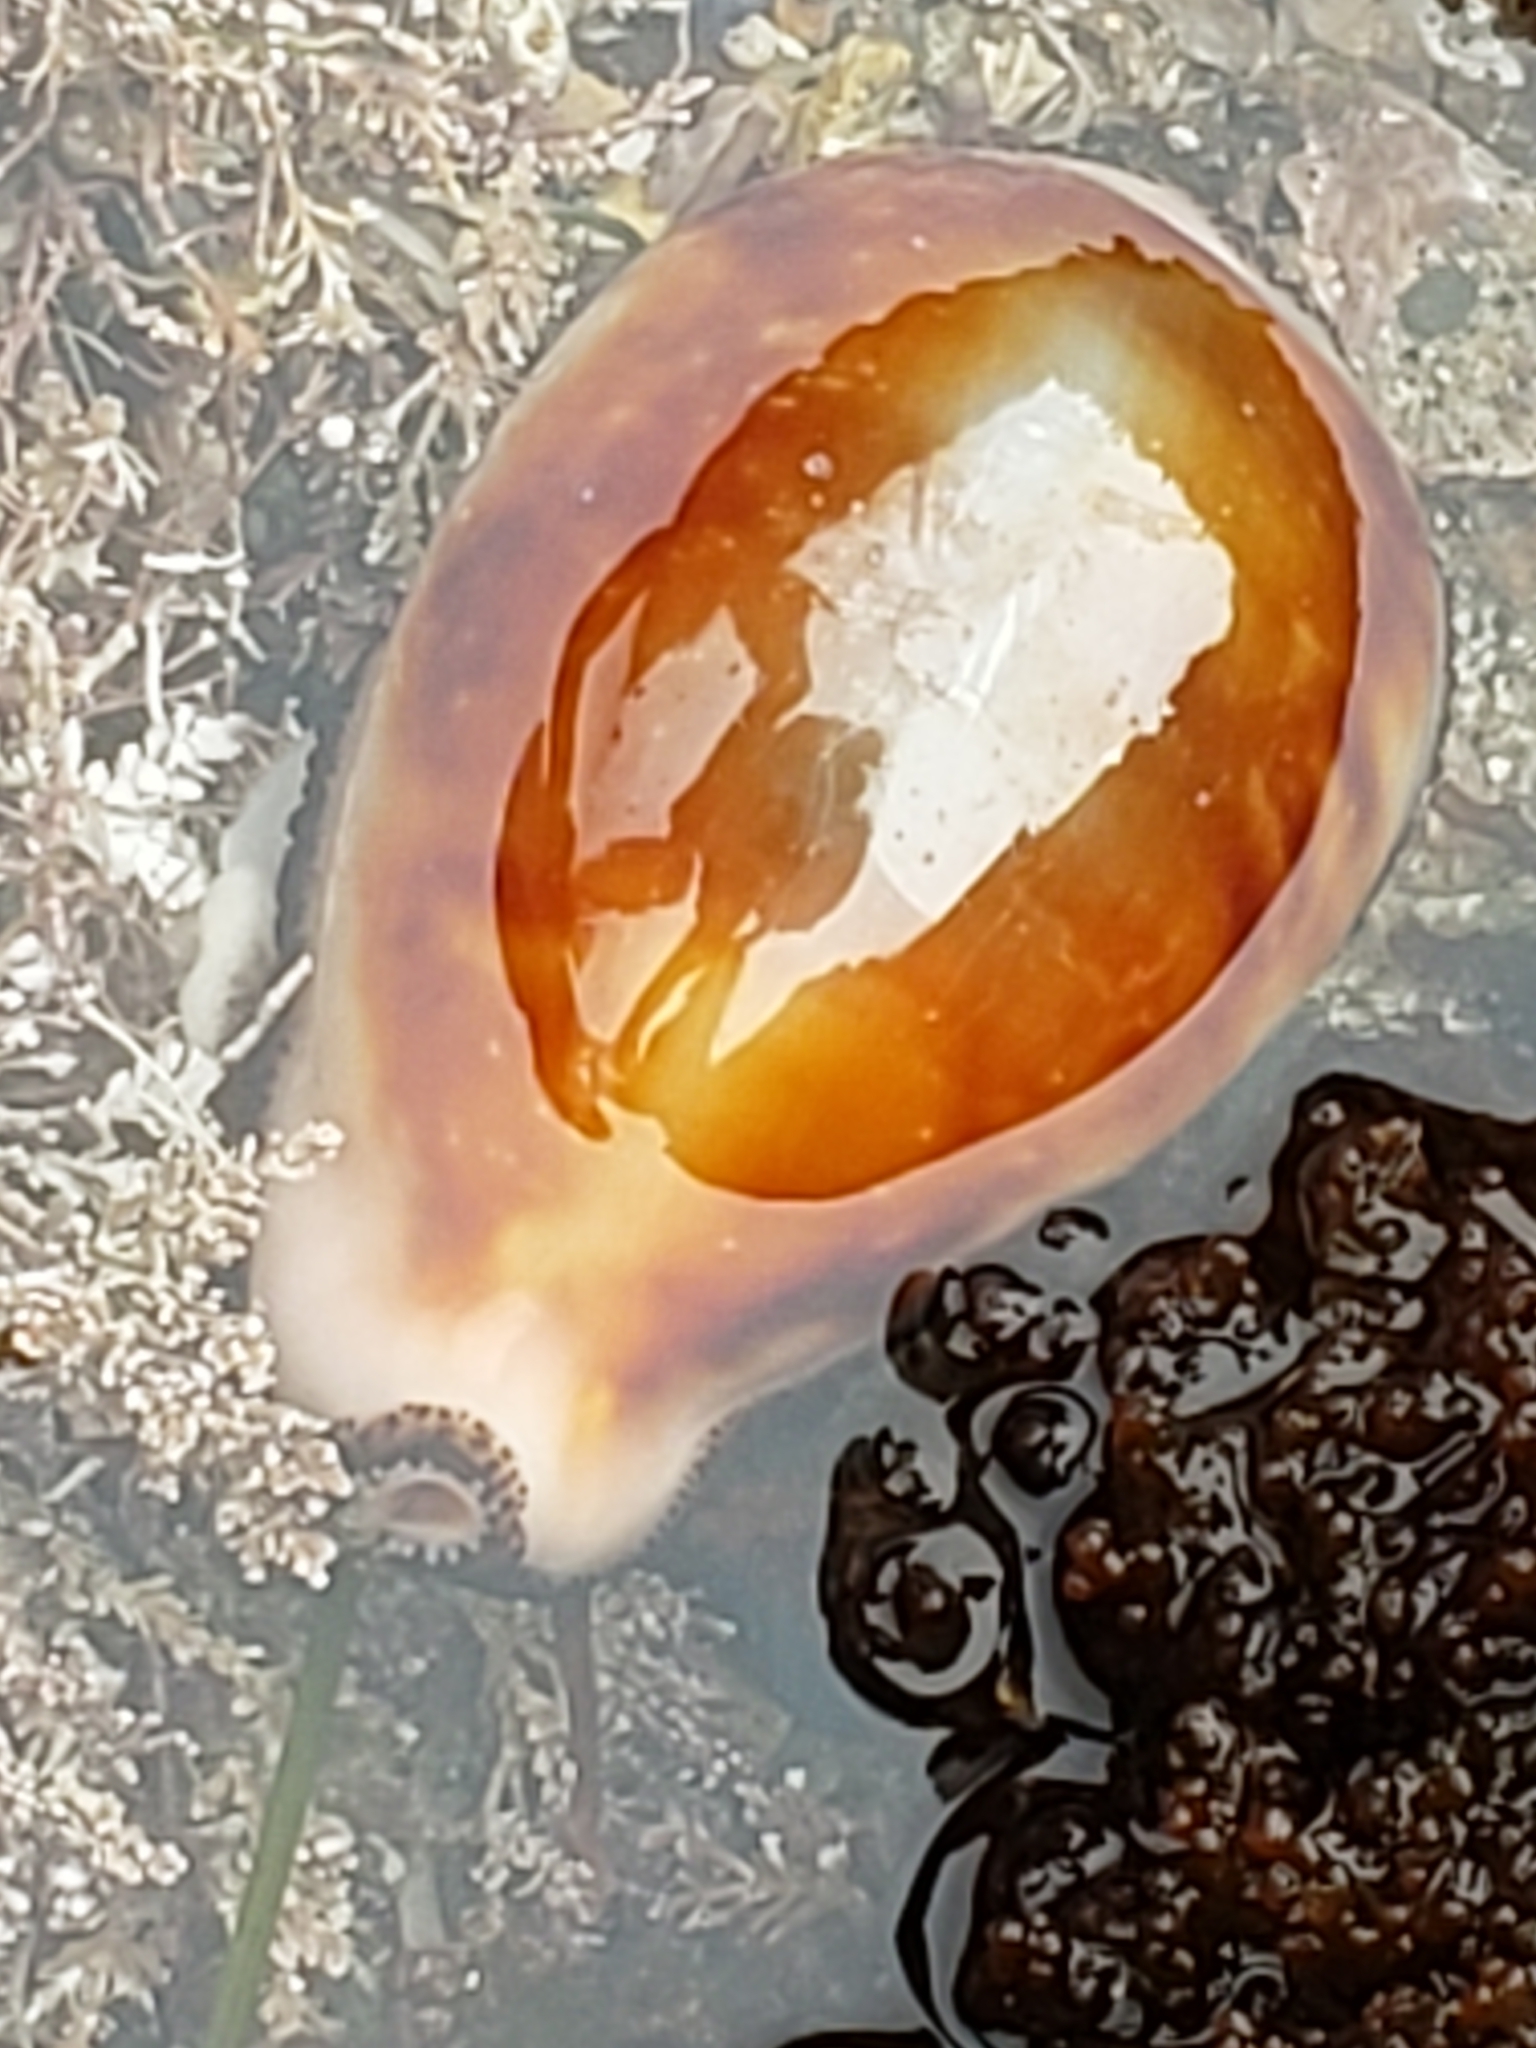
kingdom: Animalia
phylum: Mollusca
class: Gastropoda
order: Littorinimorpha
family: Cypraeidae
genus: Neobernaya
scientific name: Neobernaya spadicea
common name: Chestnut cowrie
